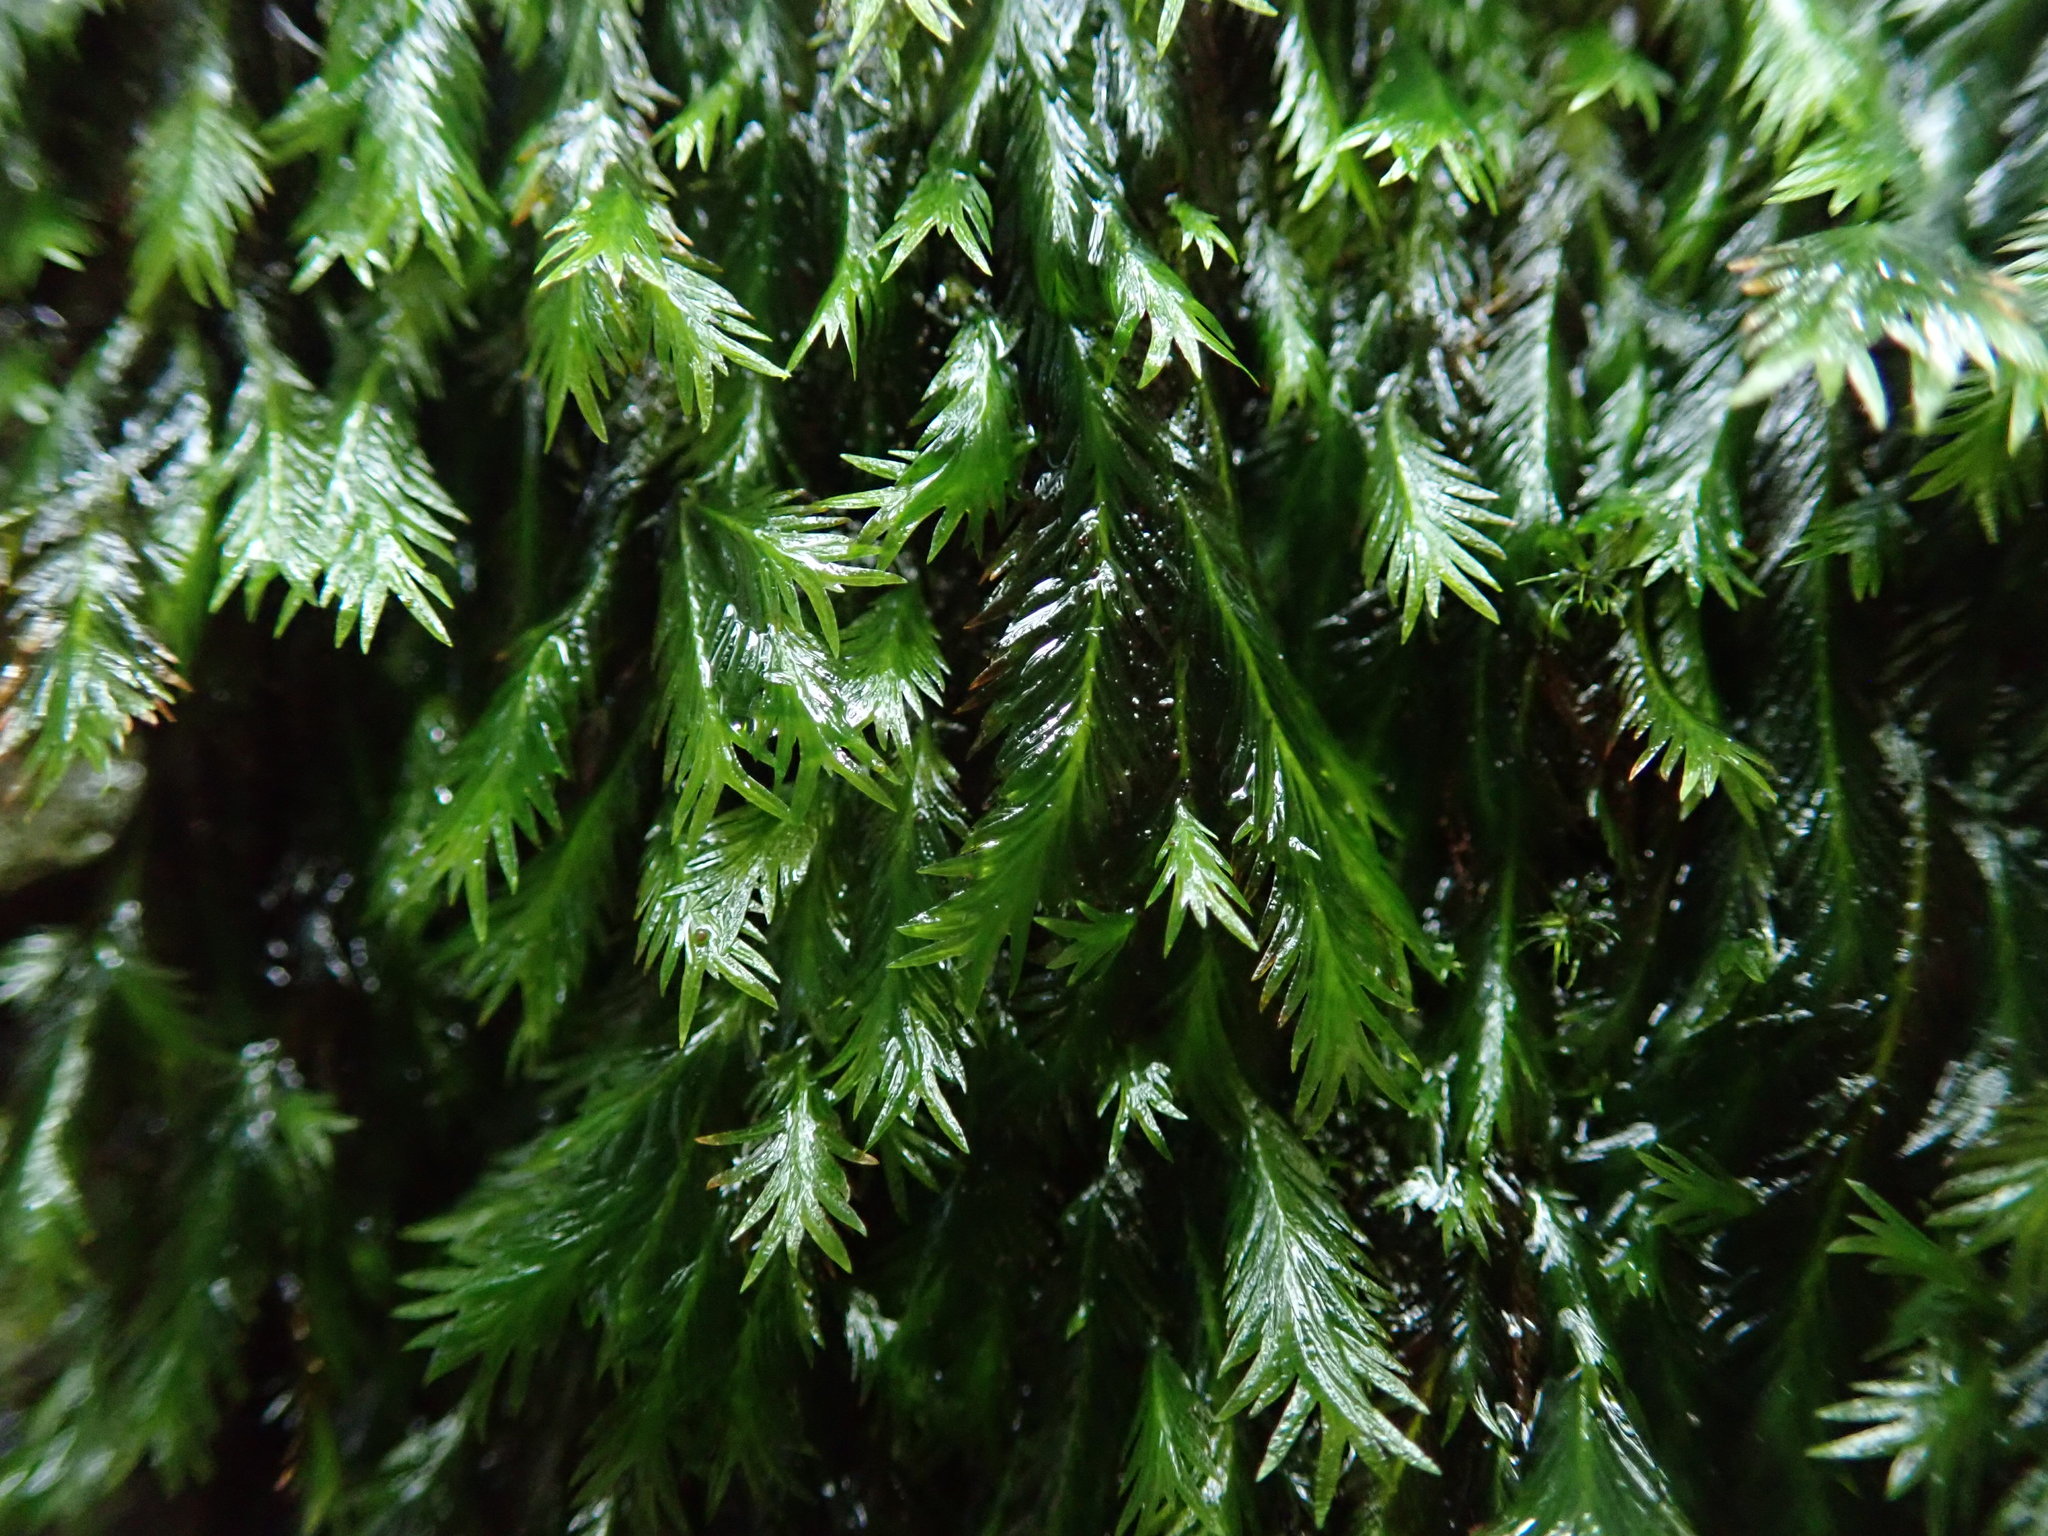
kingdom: Plantae
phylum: Bryophyta
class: Bryopsida
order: Dicranales
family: Fissidentaceae
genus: Fissidens
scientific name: Fissidens grandifrons
